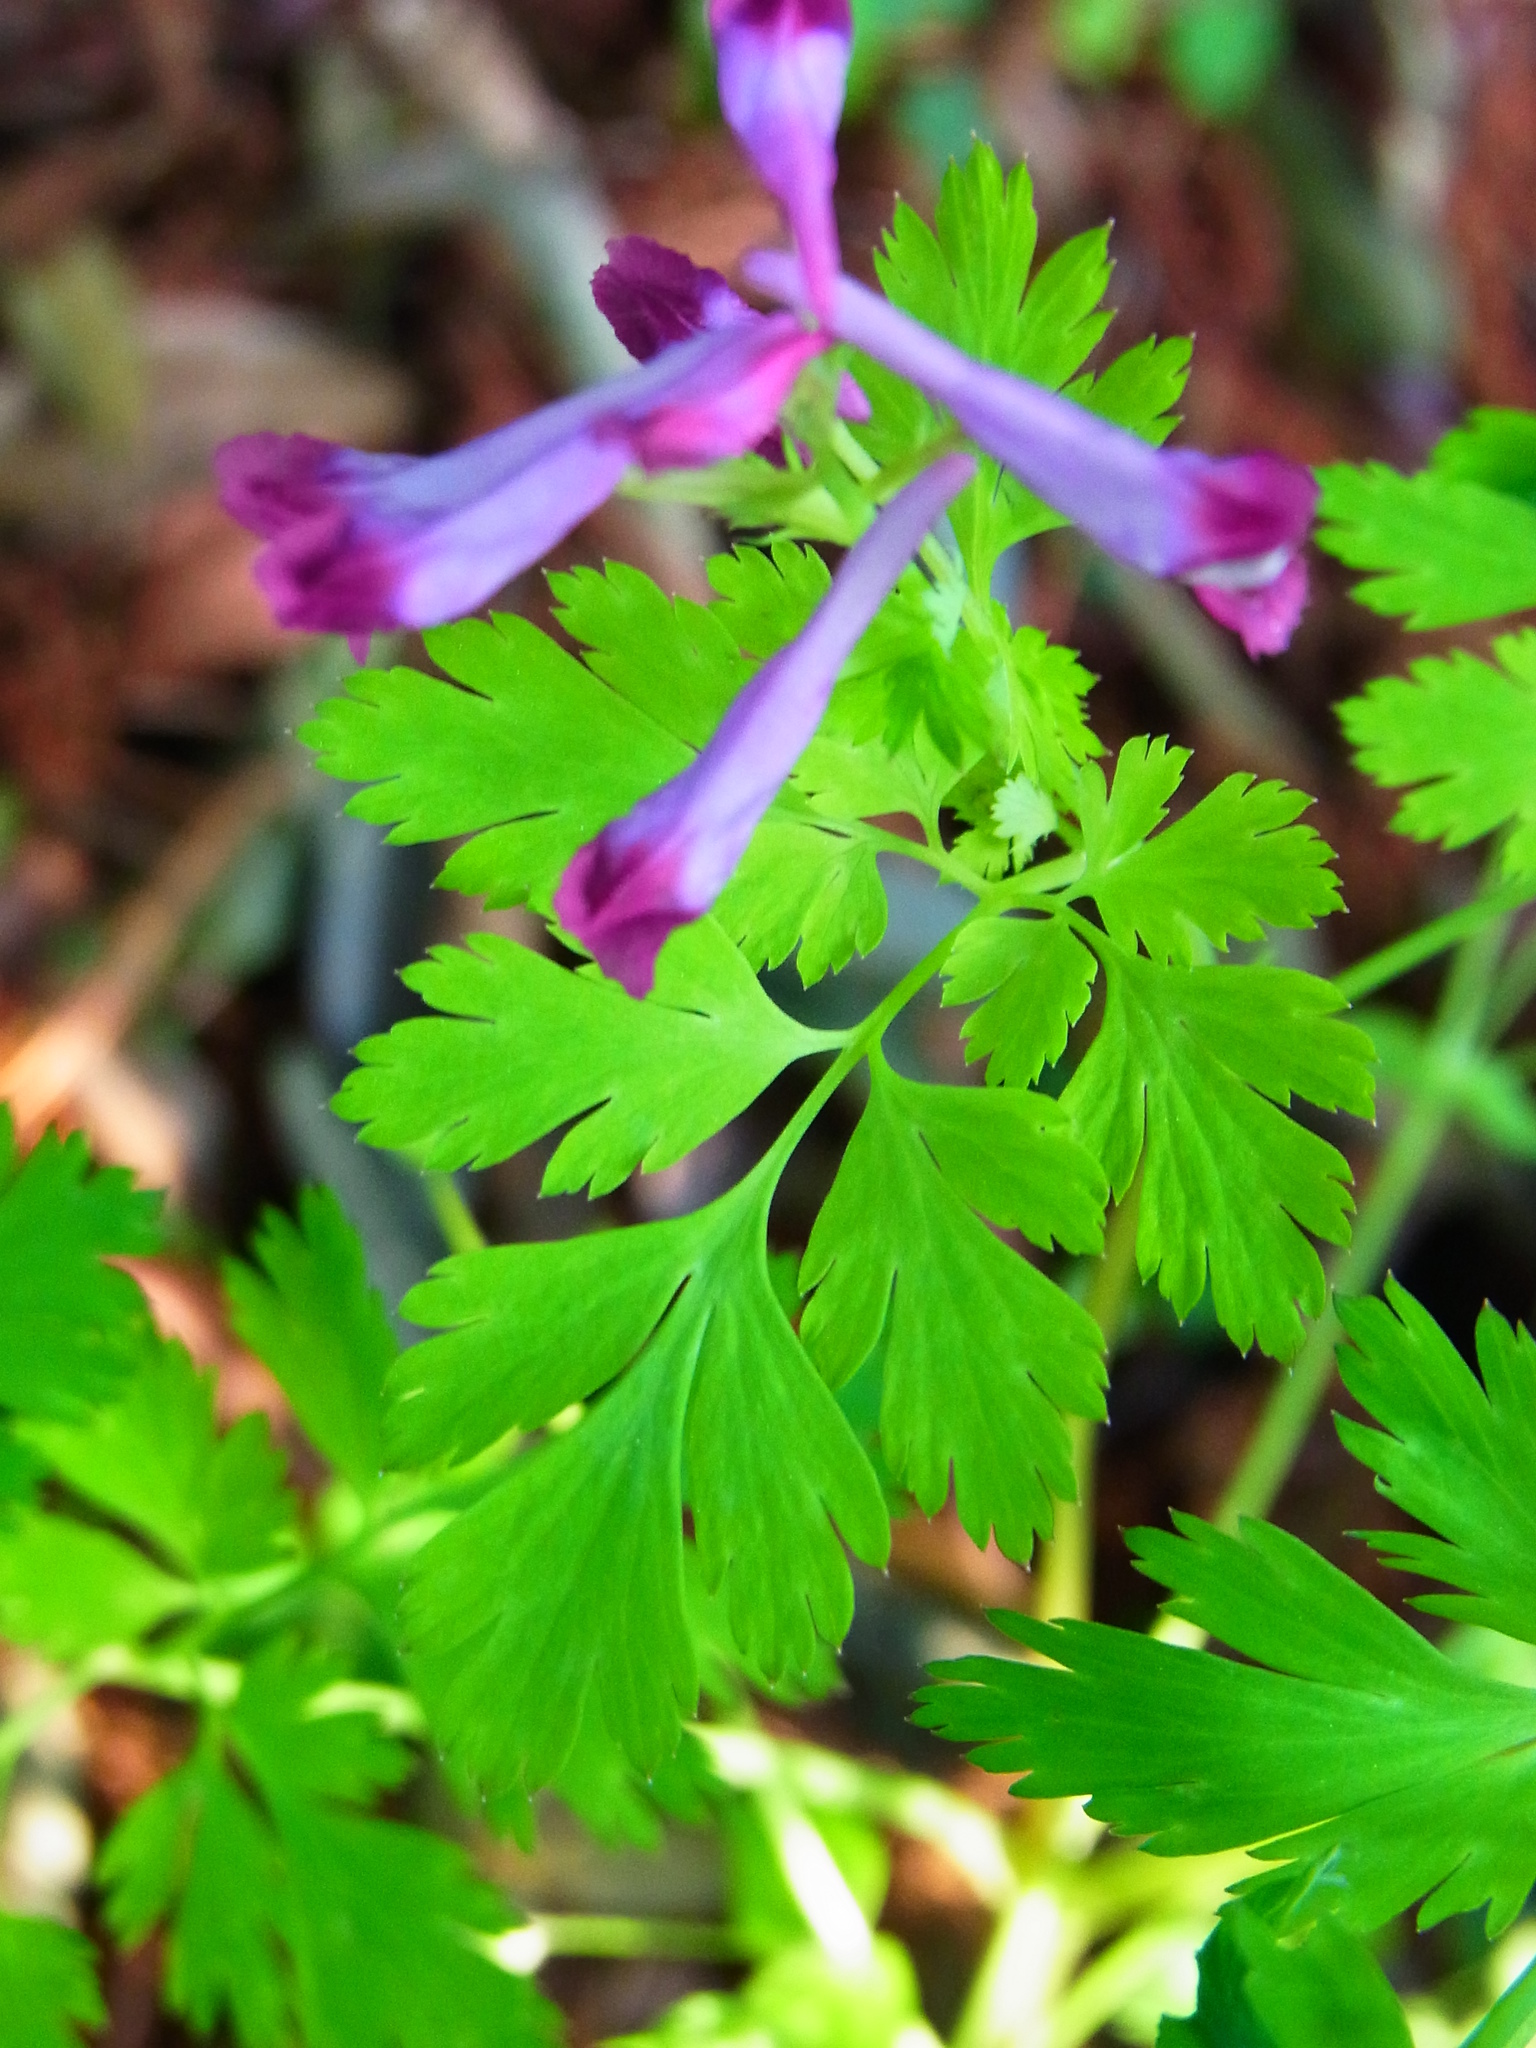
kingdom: Plantae
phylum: Tracheophyta
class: Magnoliopsida
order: Ranunculales
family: Papaveraceae
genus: Corydalis
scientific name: Corydalis incisa
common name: Incised fumewort
